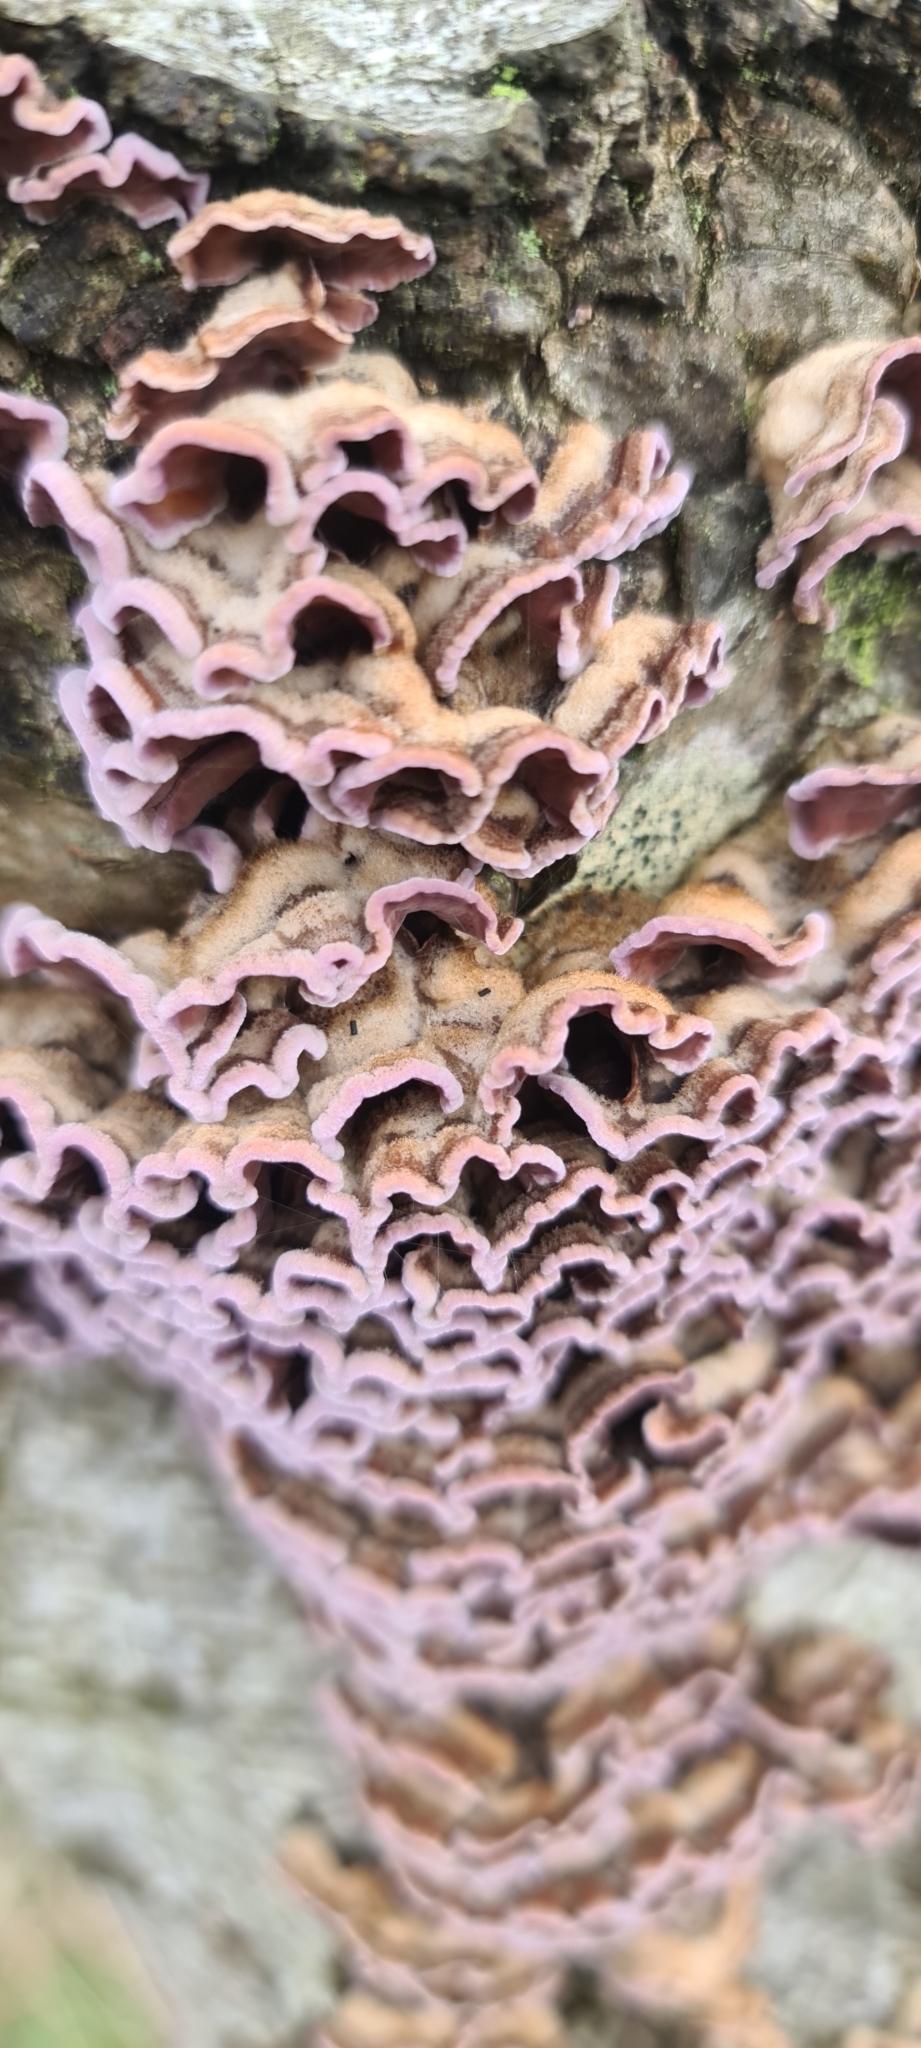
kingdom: Fungi
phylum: Basidiomycota
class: Agaricomycetes
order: Agaricales
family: Cyphellaceae
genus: Chondrostereum
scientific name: Chondrostereum purpureum
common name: Silver leaf disease
